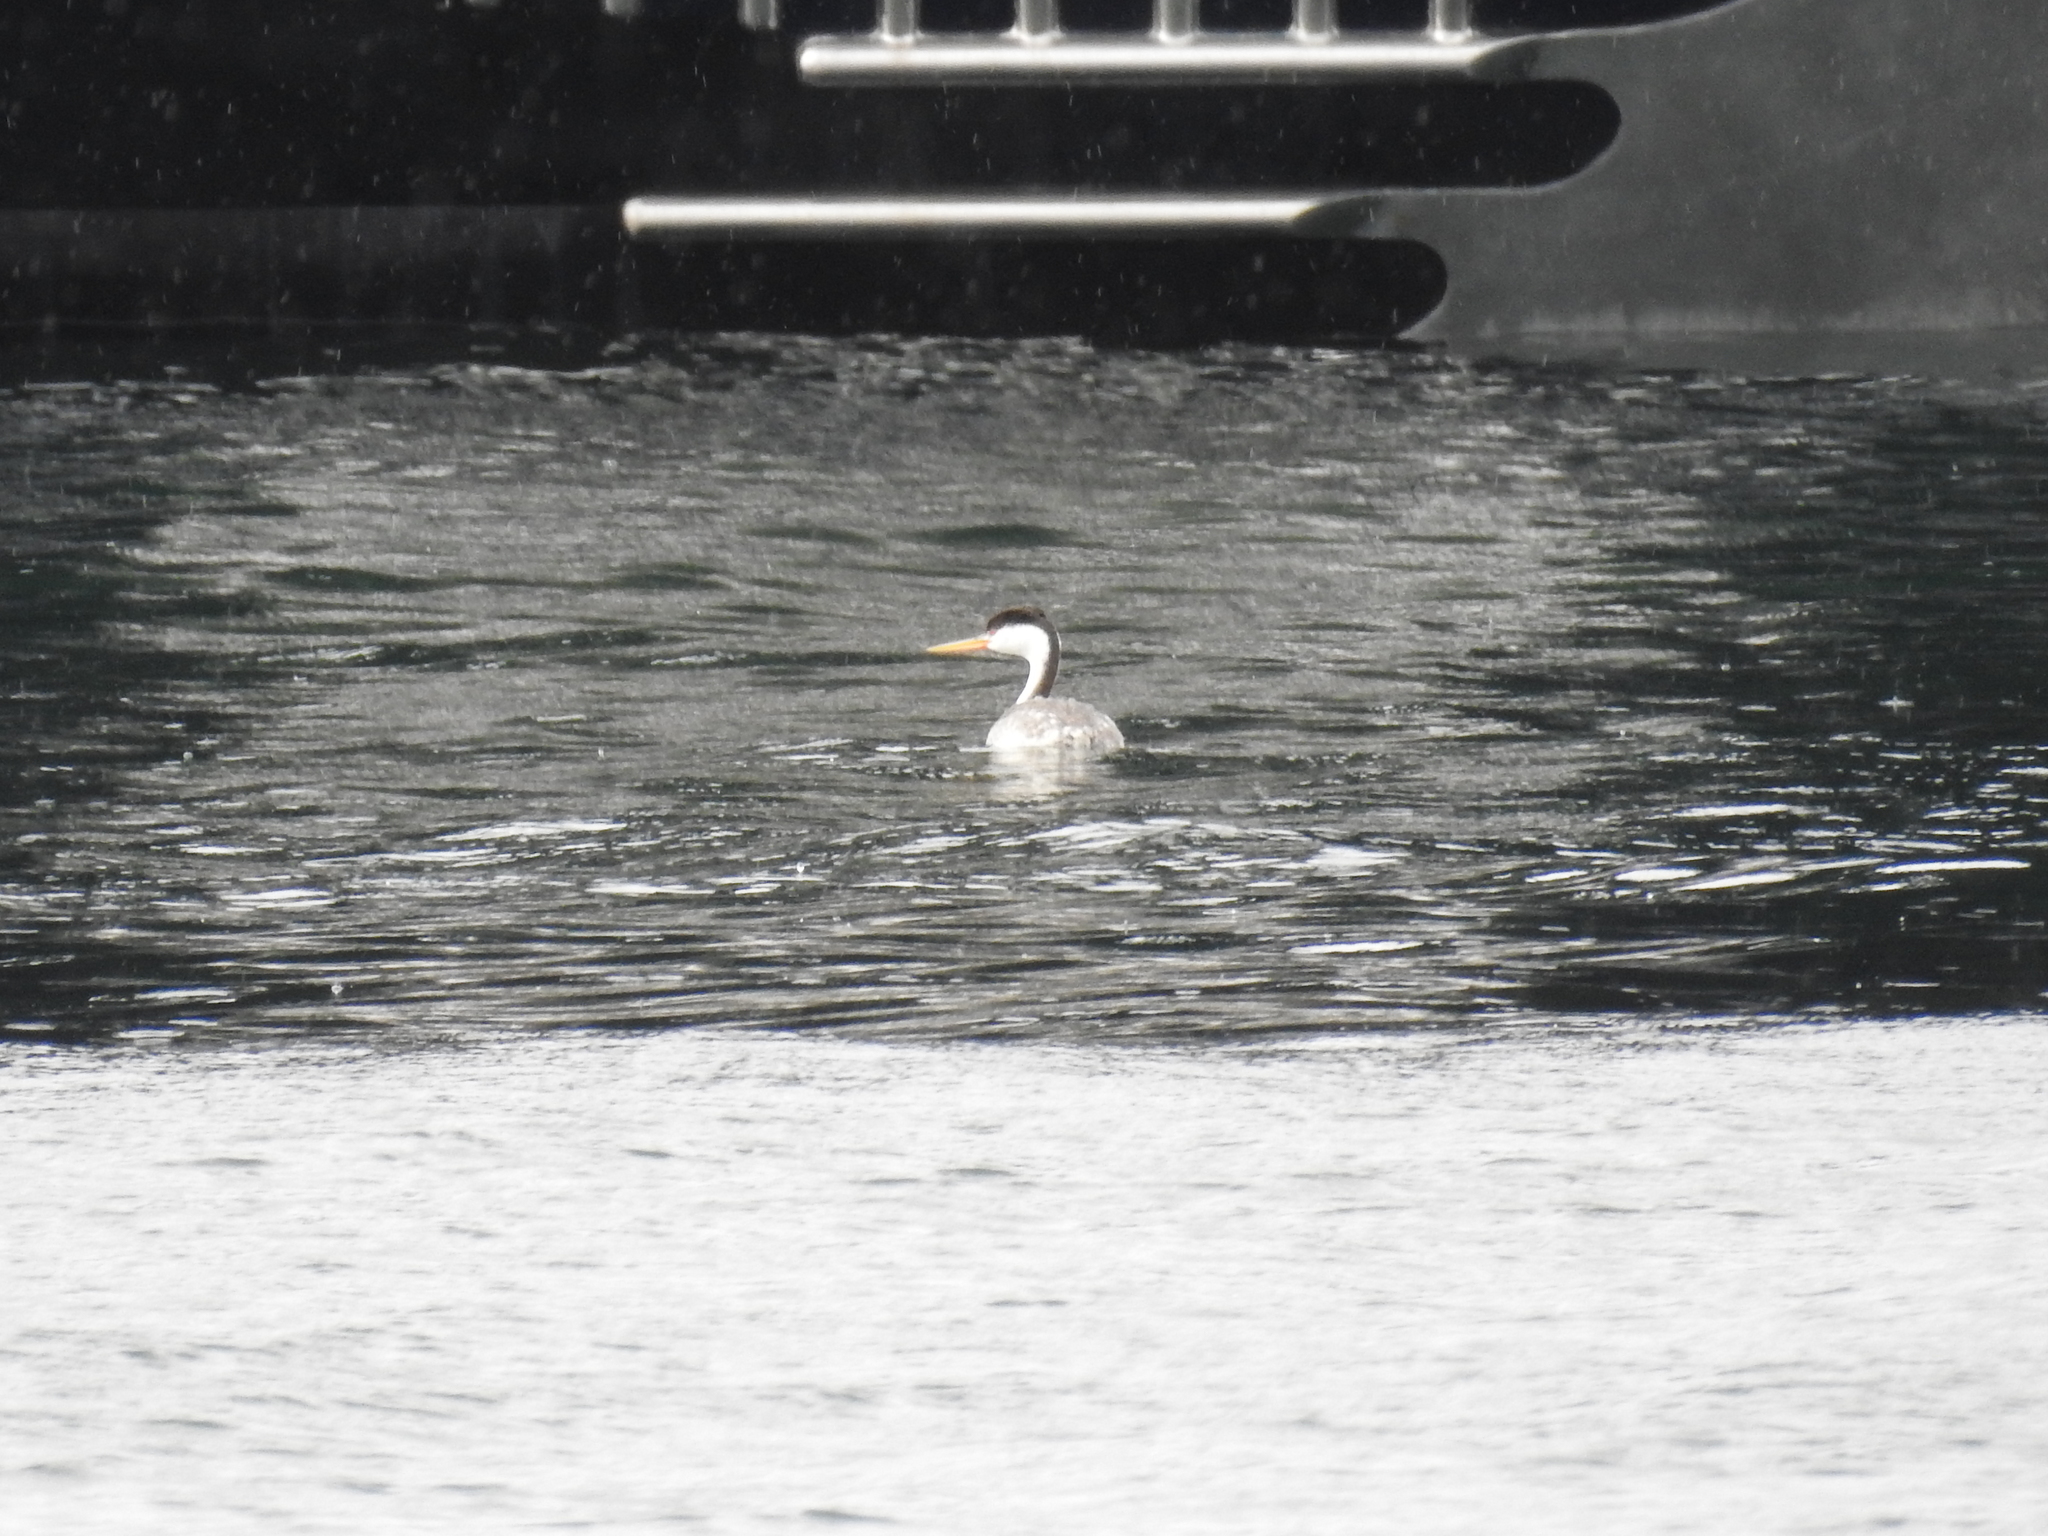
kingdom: Animalia
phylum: Chordata
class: Aves
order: Podicipediformes
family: Podicipedidae
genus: Aechmophorus
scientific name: Aechmophorus clarkii
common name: Clark's grebe
